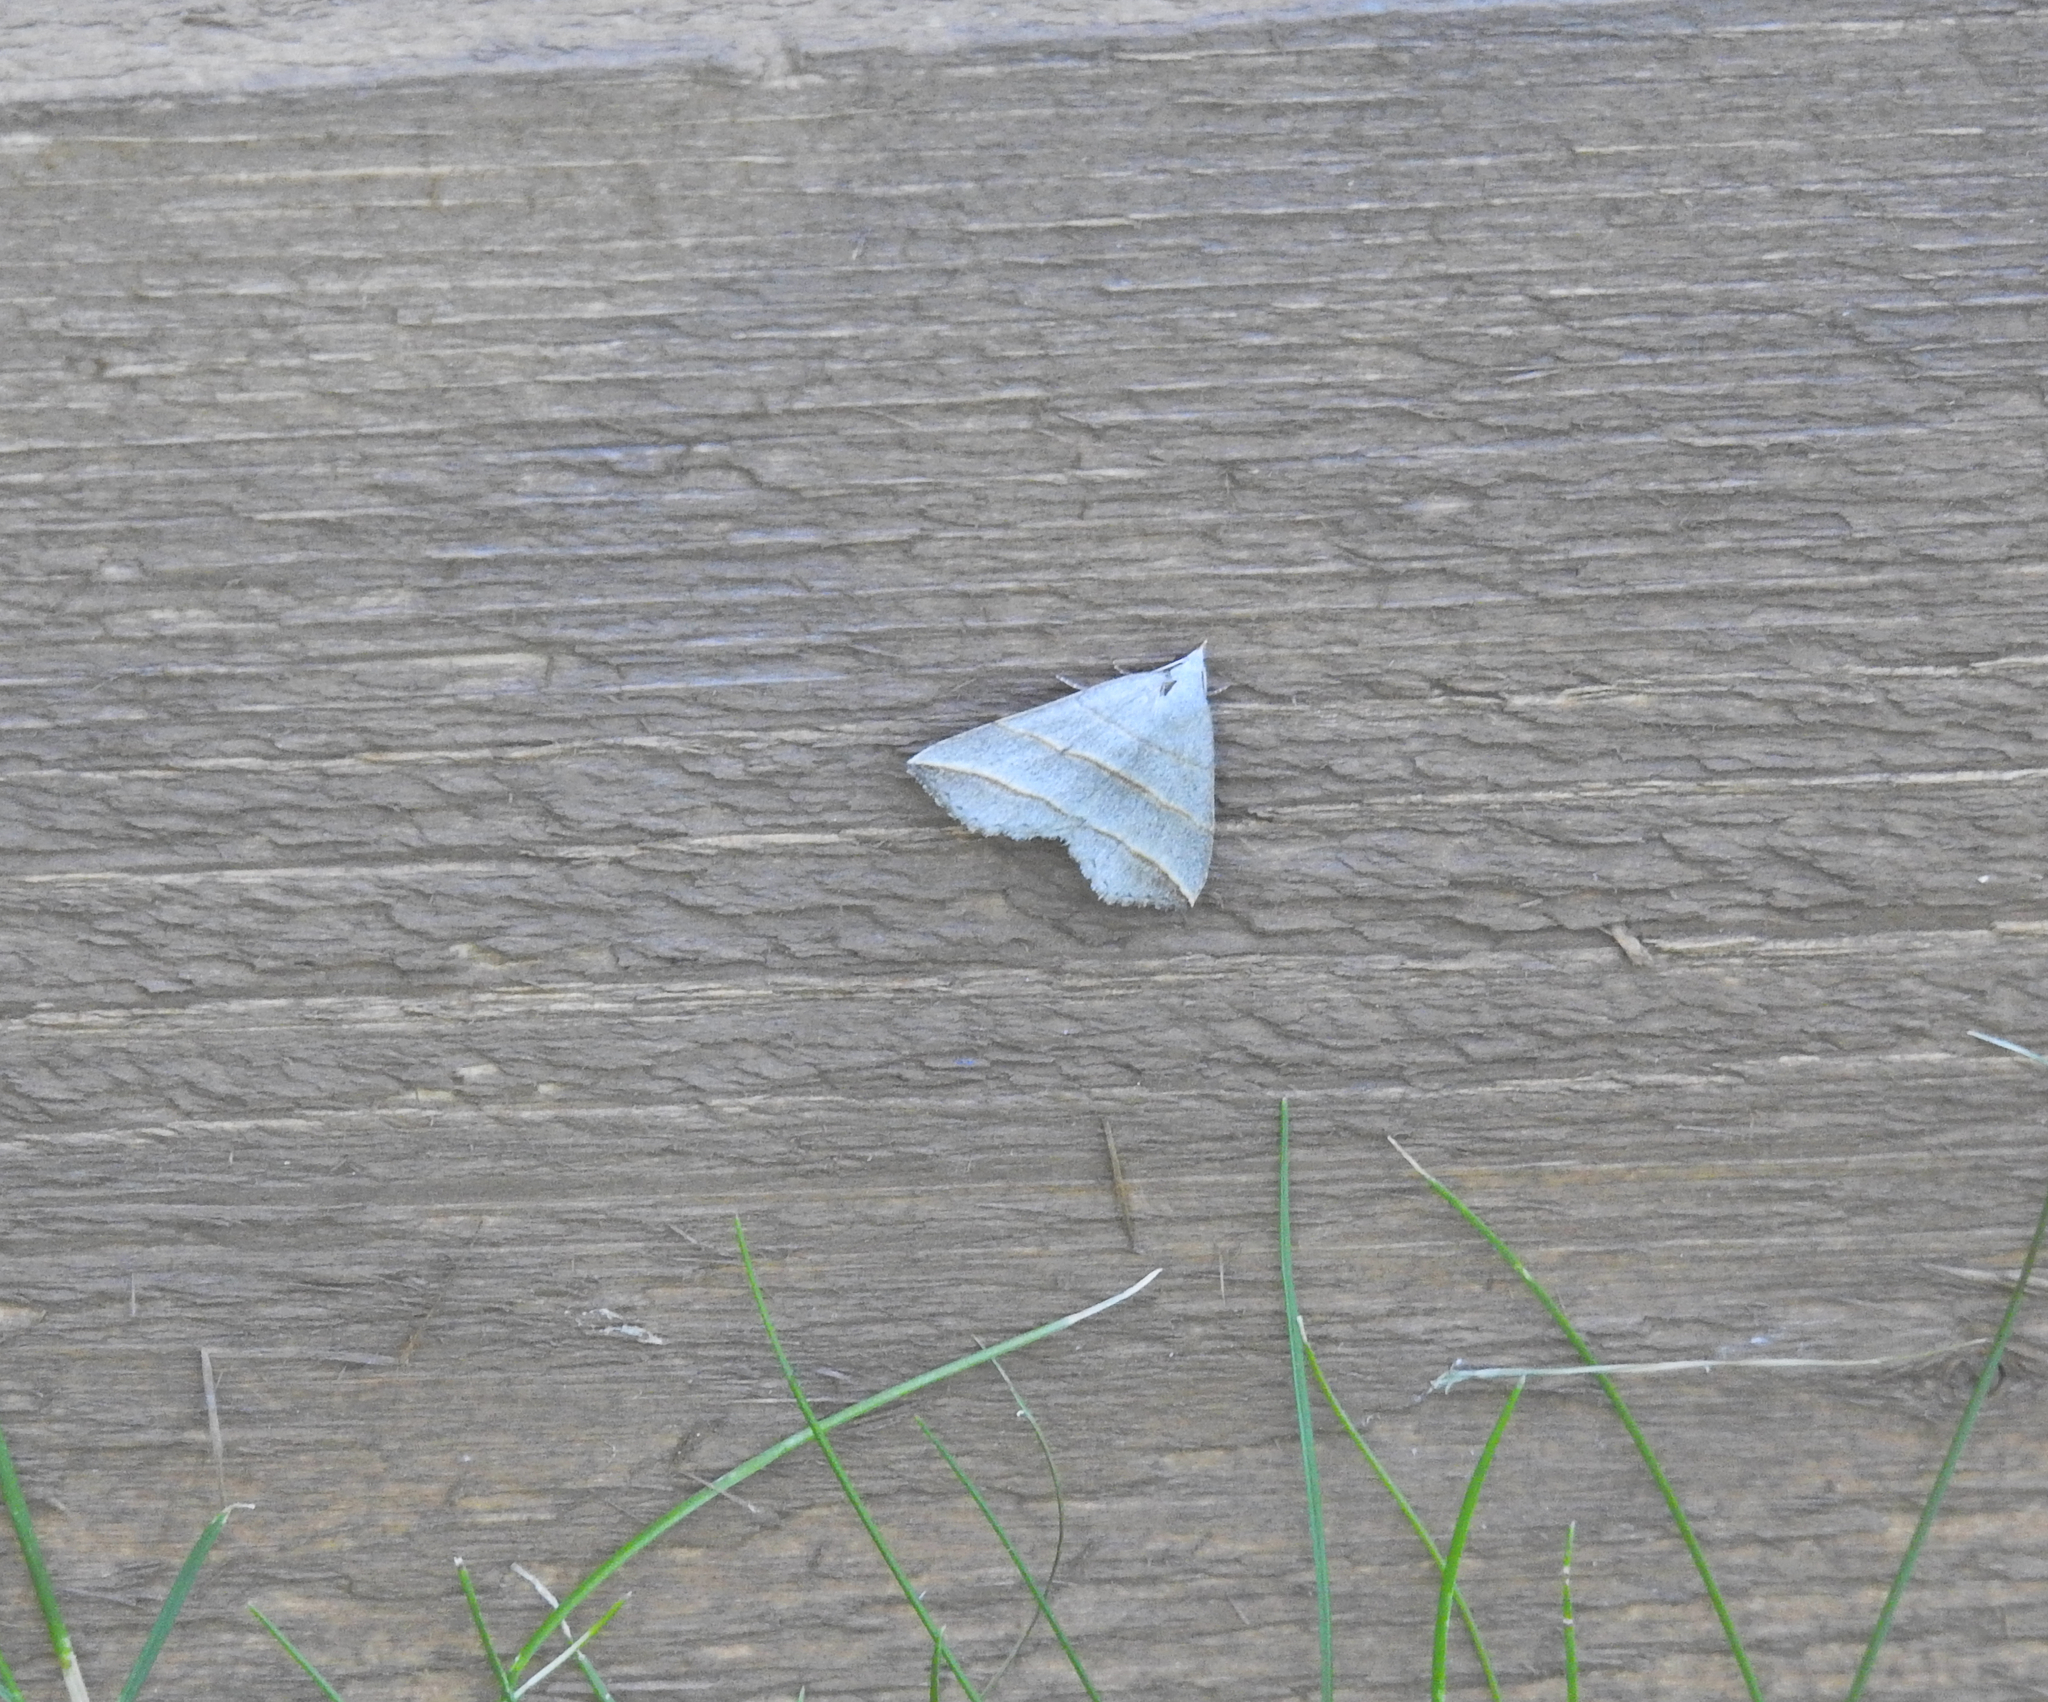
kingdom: Animalia
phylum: Arthropoda
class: Insecta
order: Lepidoptera
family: Erebidae
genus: Colobochyla
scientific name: Colobochyla salicalis
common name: Lesser belle
